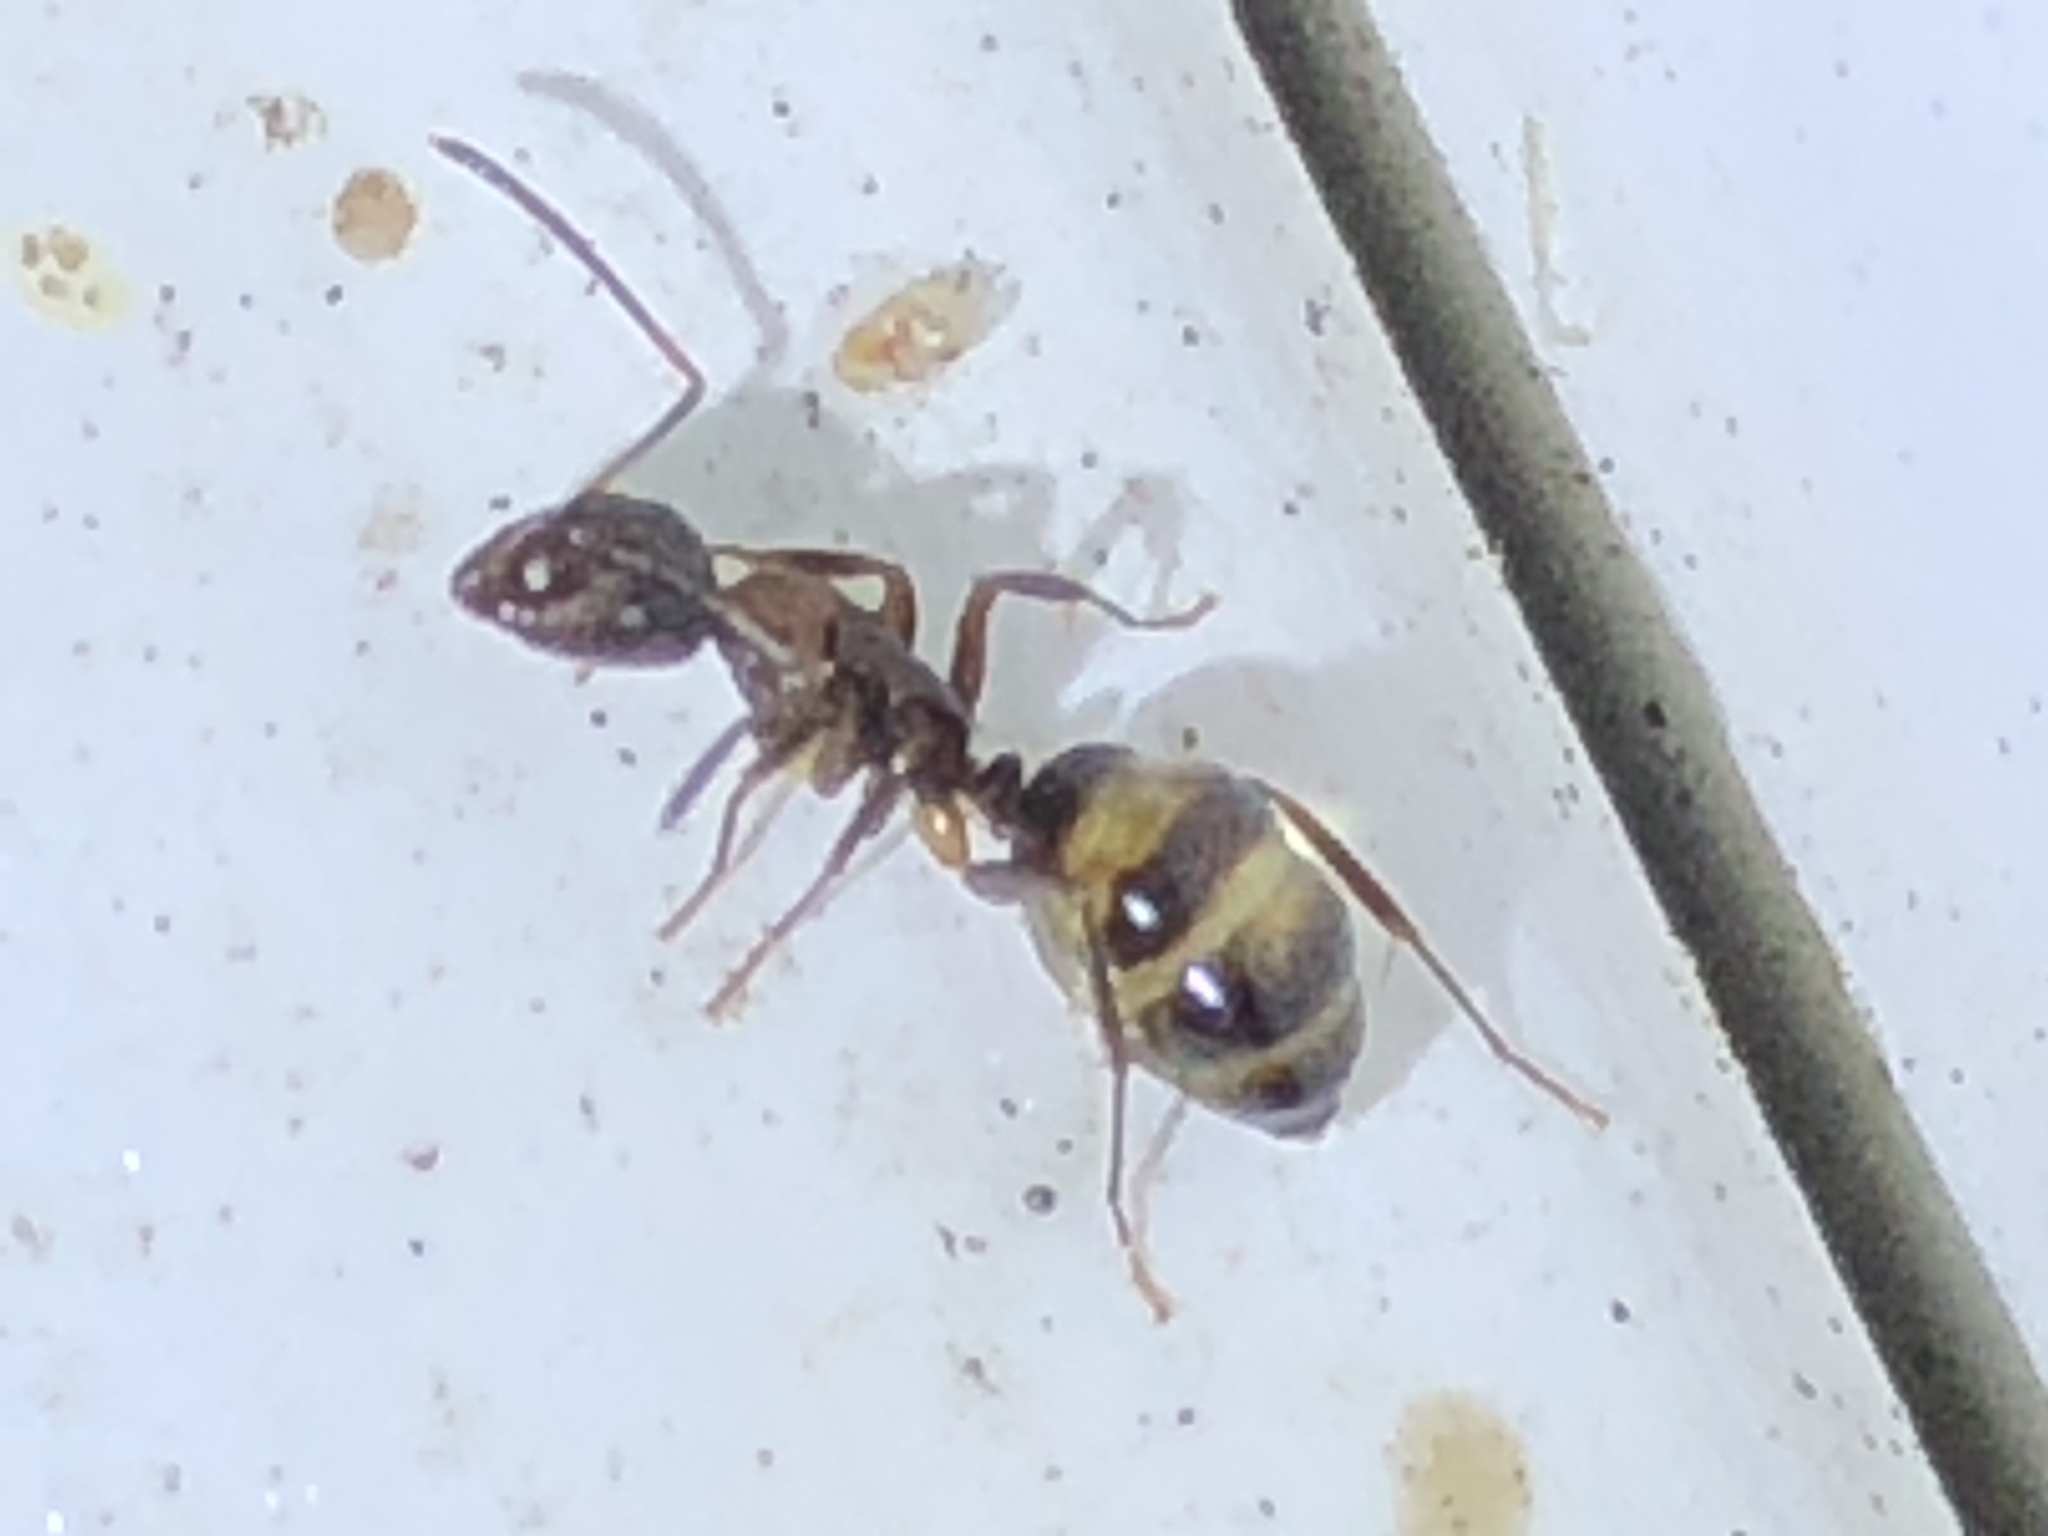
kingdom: Animalia
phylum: Arthropoda
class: Insecta
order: Hymenoptera
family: Formicidae
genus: Camponotus
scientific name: Camponotus subbarbatus
